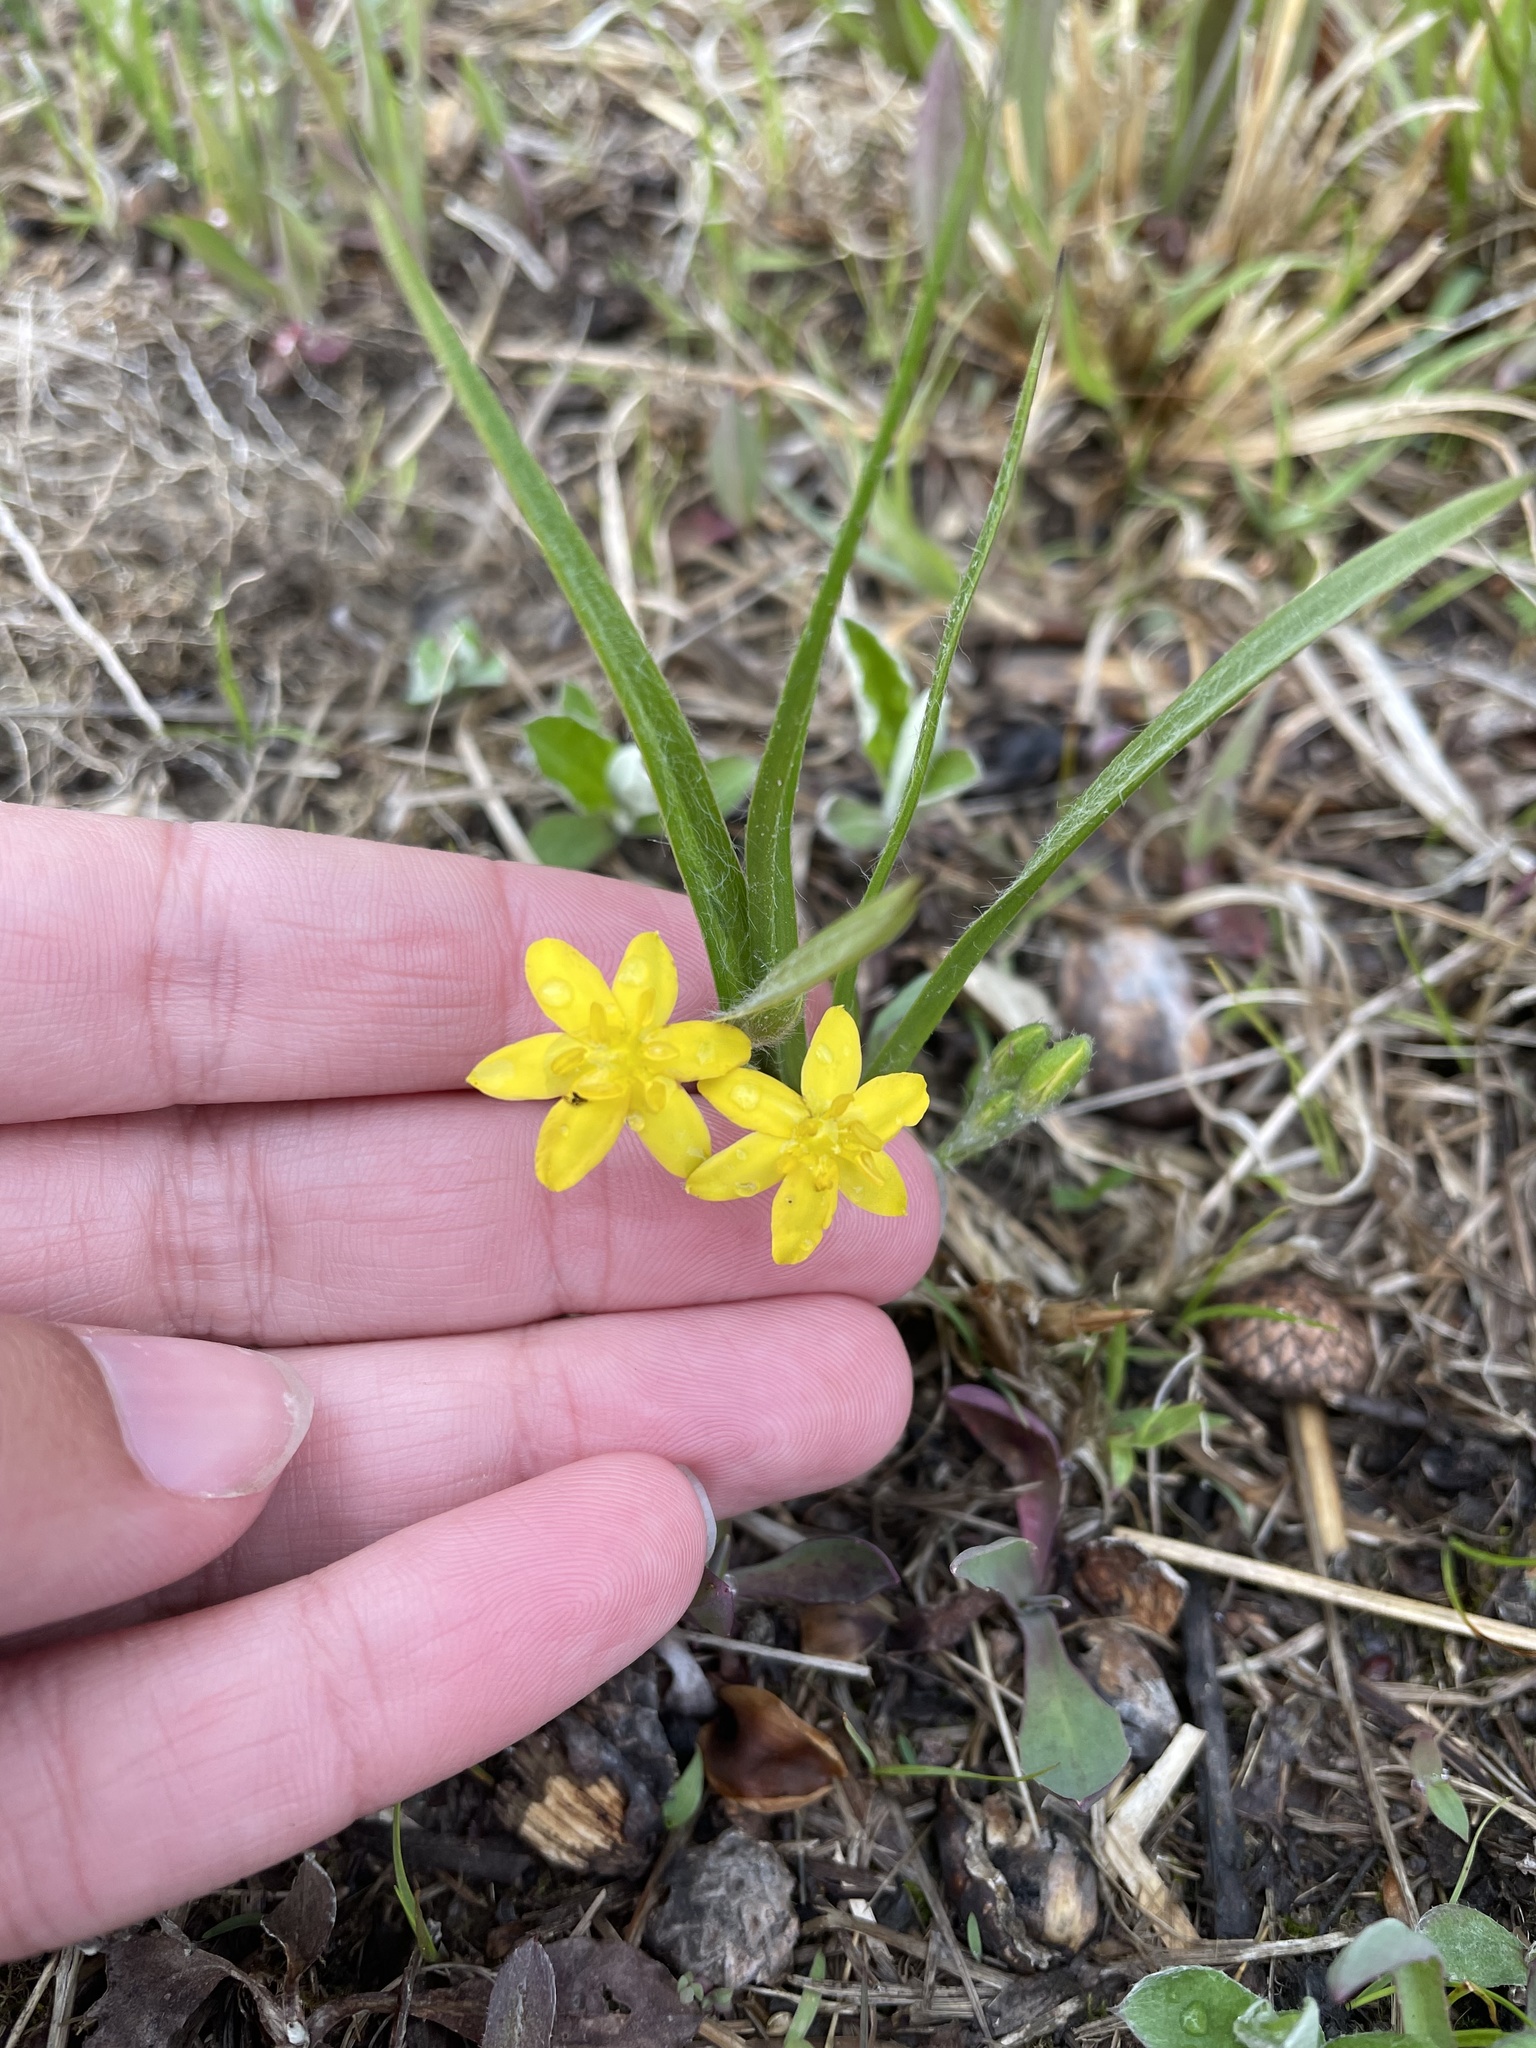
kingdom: Plantae
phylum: Tracheophyta
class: Liliopsida
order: Asparagales
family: Hypoxidaceae
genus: Hypoxis
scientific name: Hypoxis hirsuta
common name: Common goldstar
